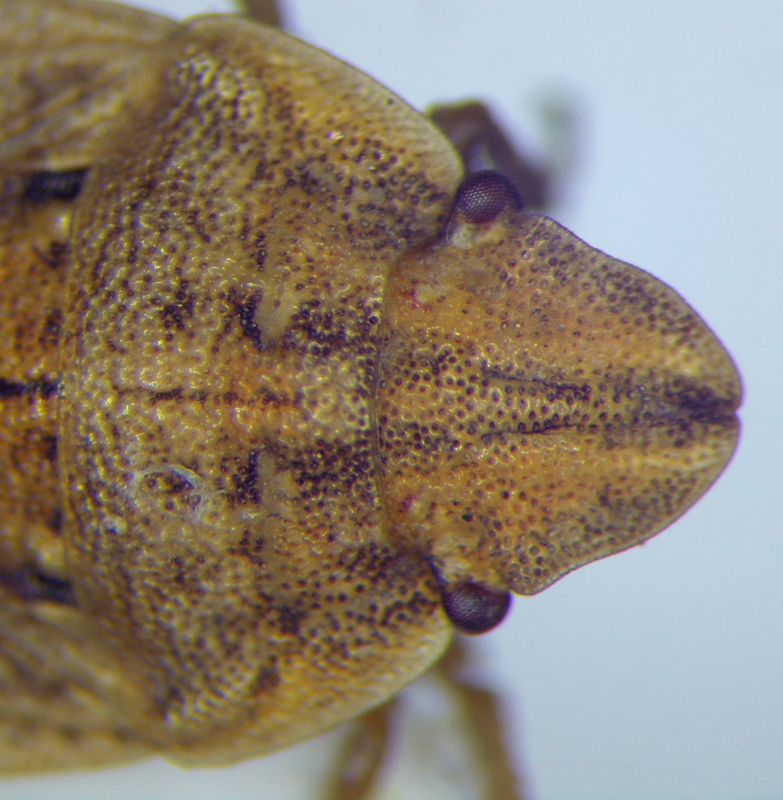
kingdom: Animalia
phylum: Arthropoda
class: Insecta
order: Hemiptera
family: Pentatomidae
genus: Sciocoris
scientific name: Sciocoris sulcatus
